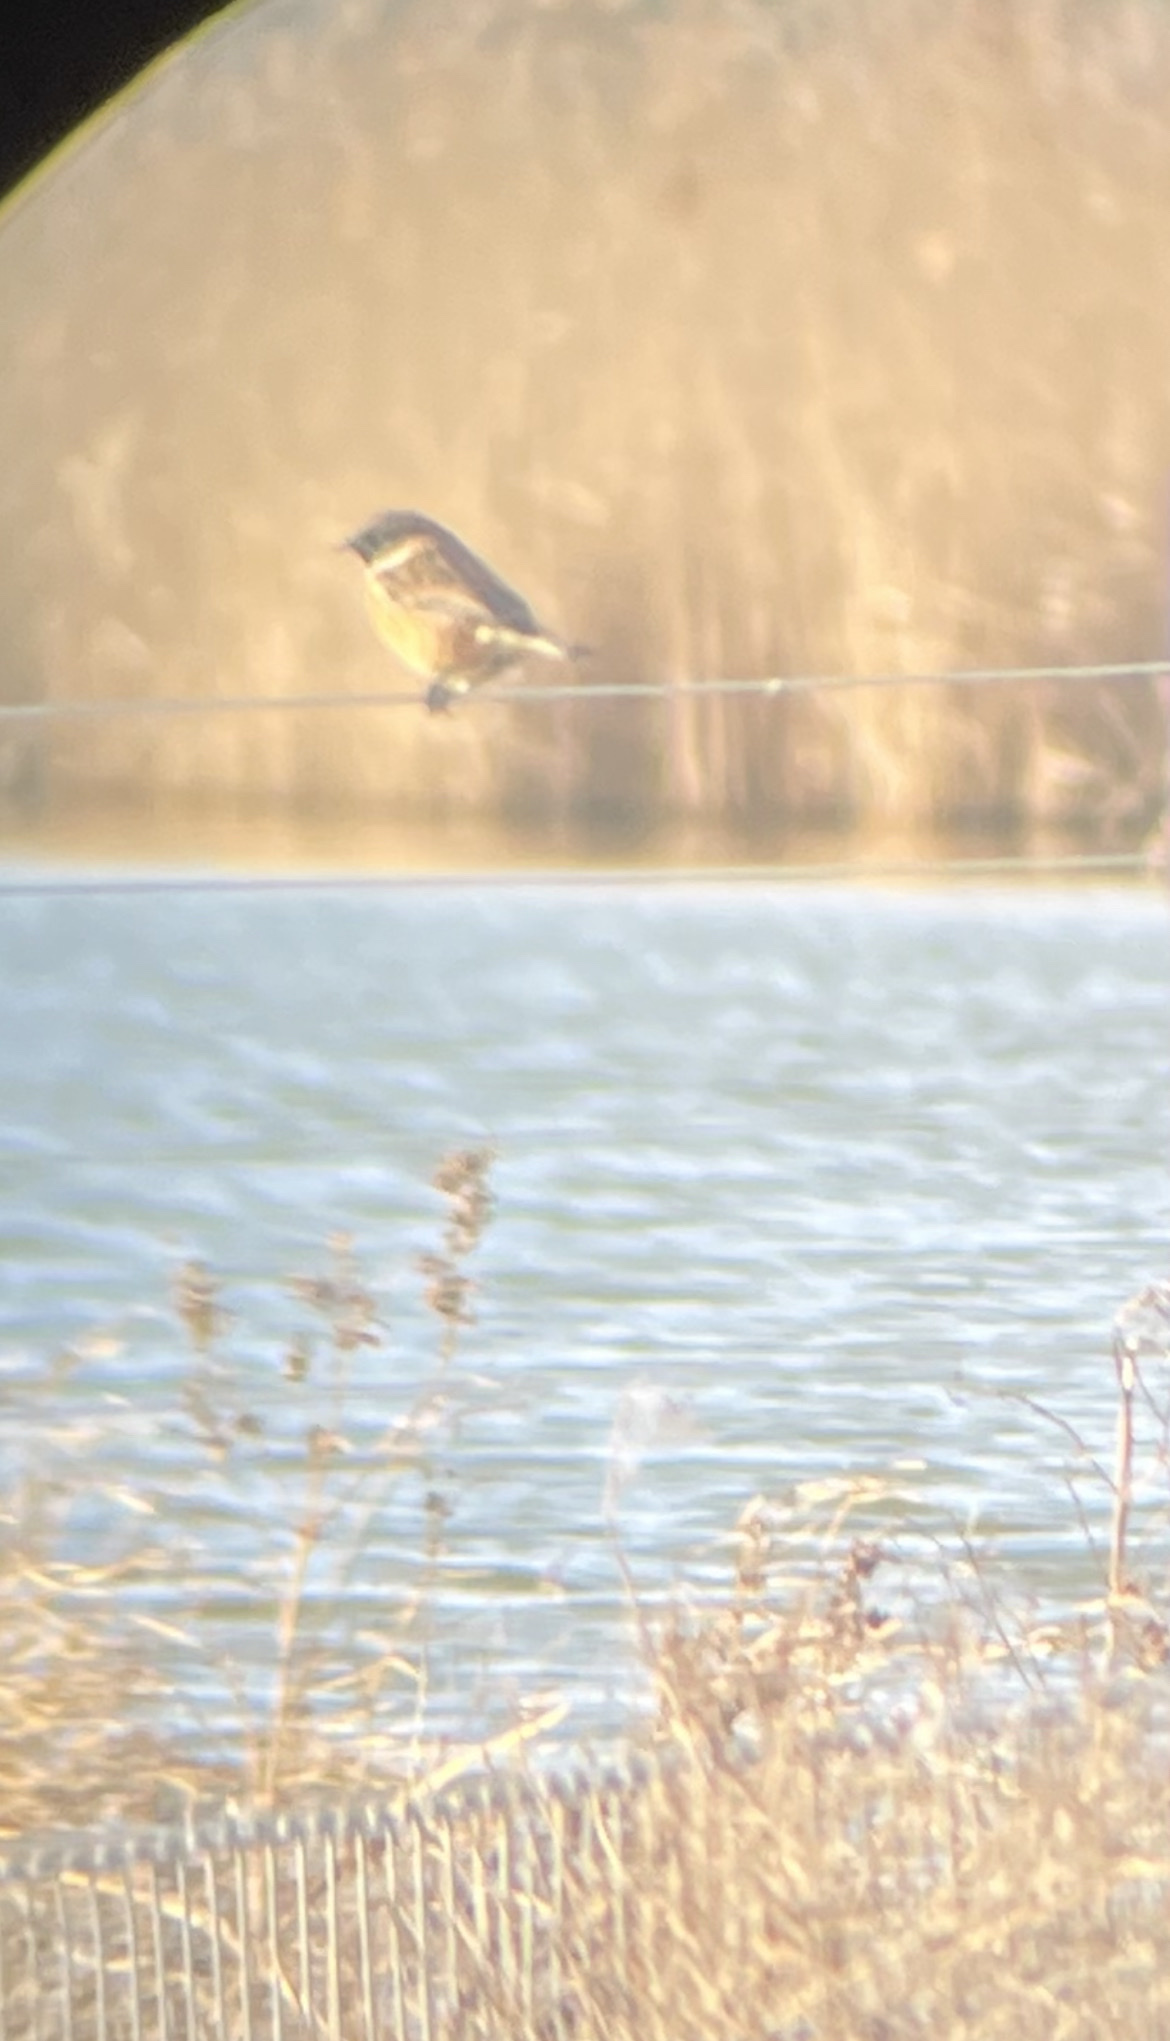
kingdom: Animalia
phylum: Chordata
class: Aves
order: Passeriformes
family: Muscicapidae
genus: Saxicola
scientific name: Saxicola rubicola
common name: European stonechat
